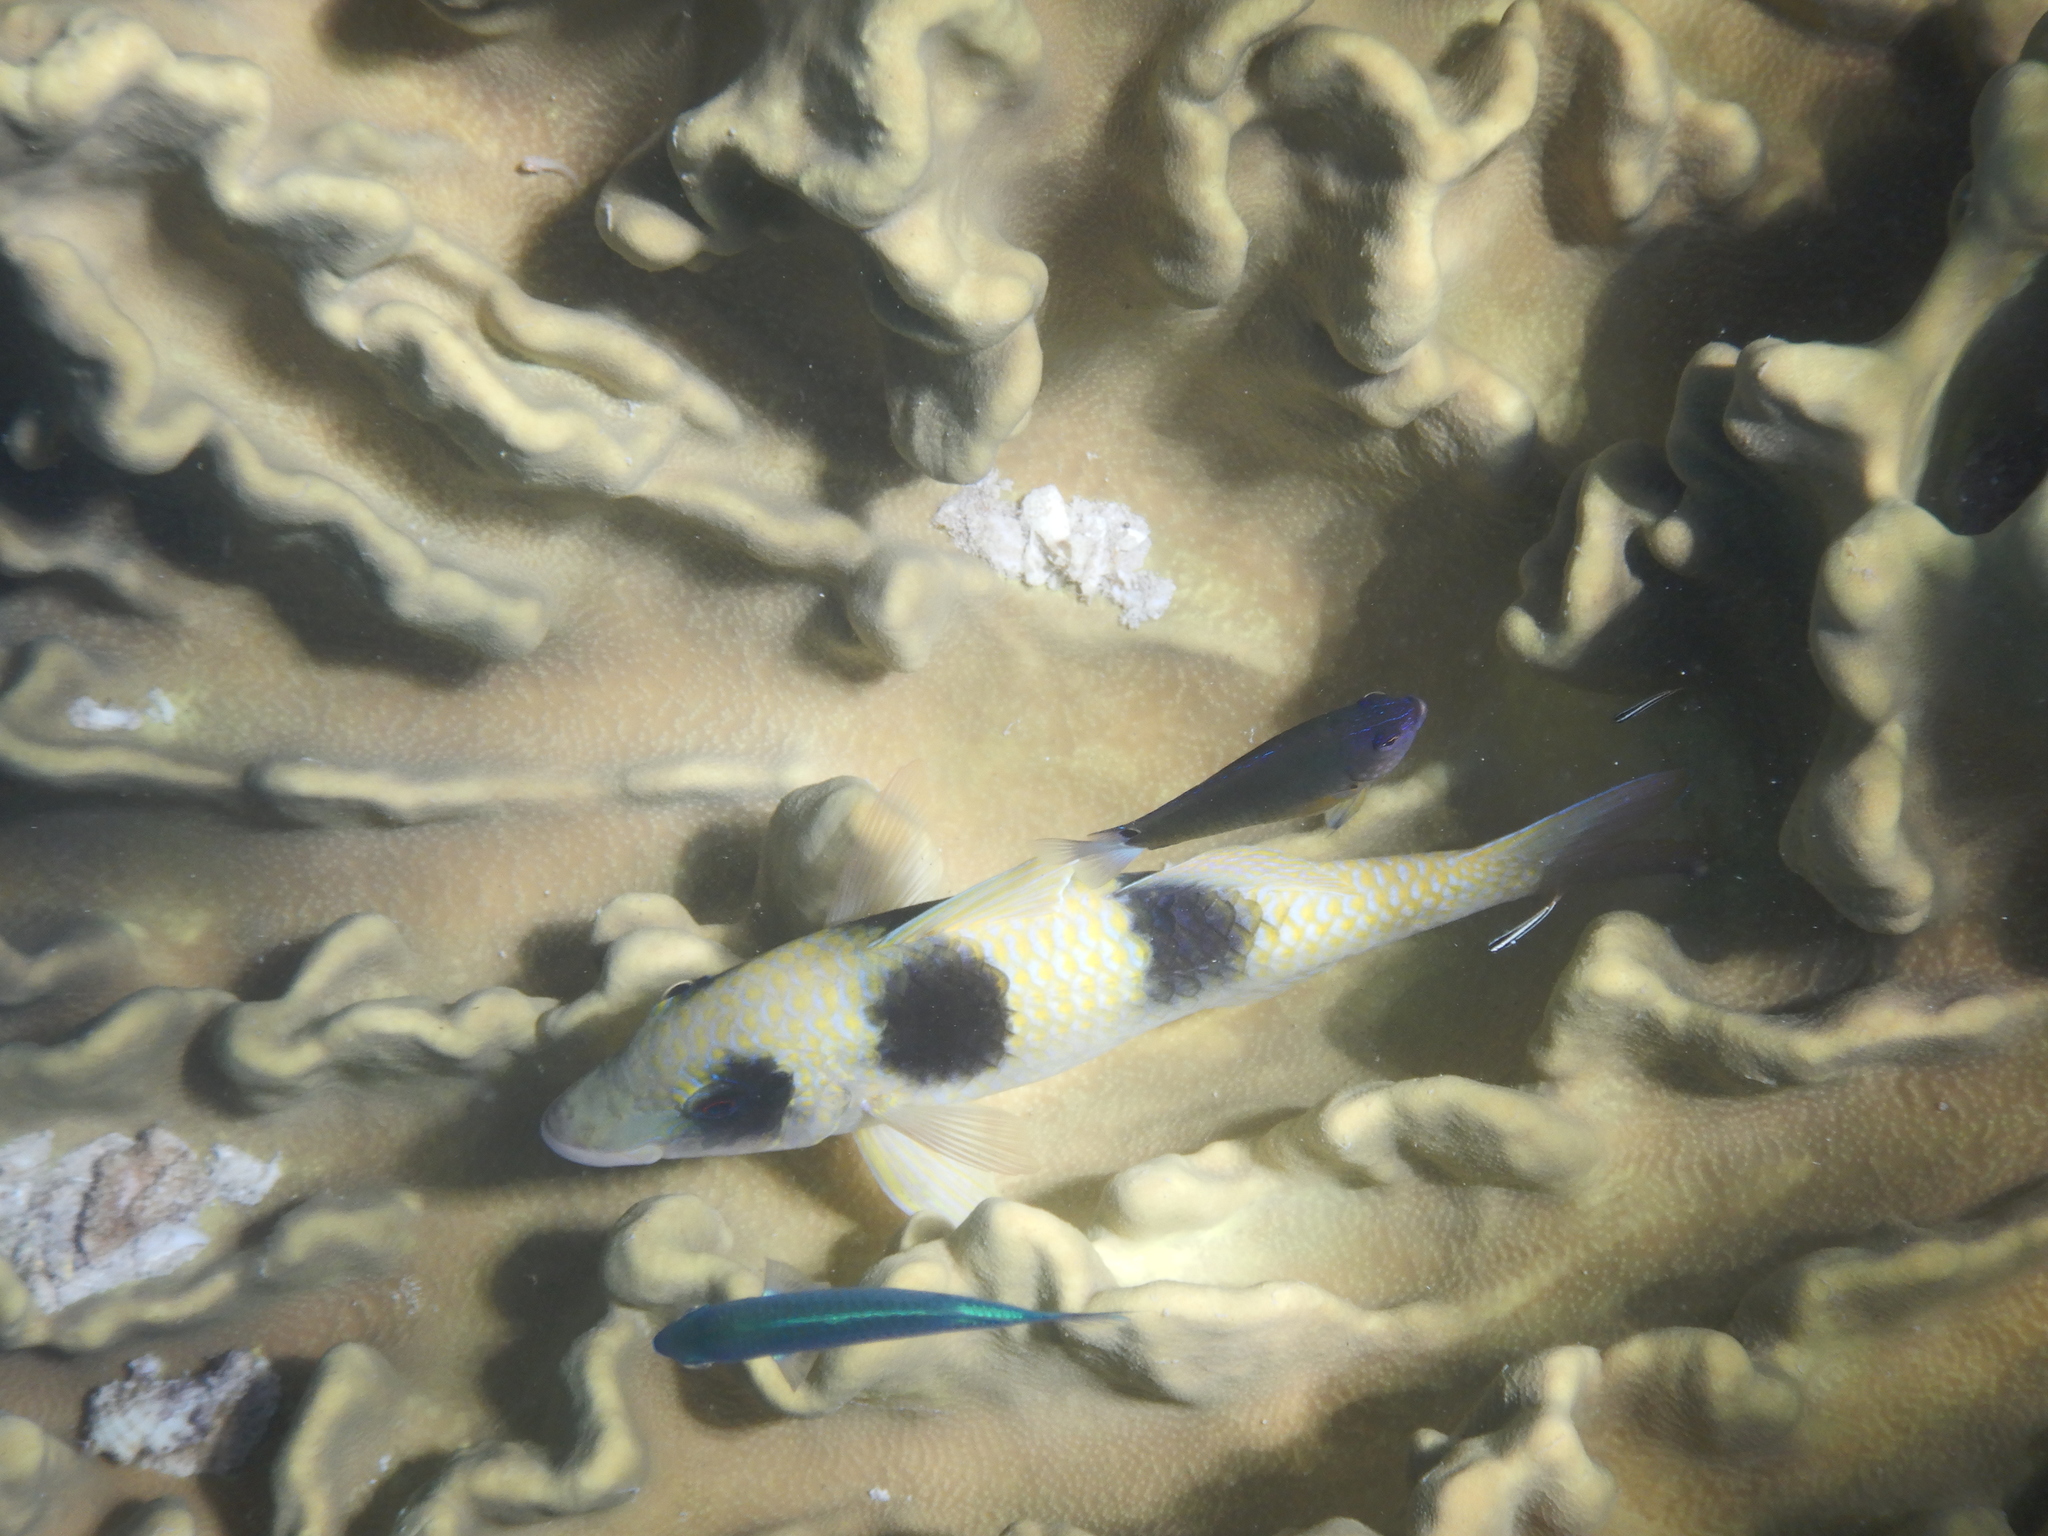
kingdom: Animalia
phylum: Chordata
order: Perciformes
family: Mullidae
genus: Parupeneus
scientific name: Parupeneus crassilabris
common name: Doublebar goatfish
